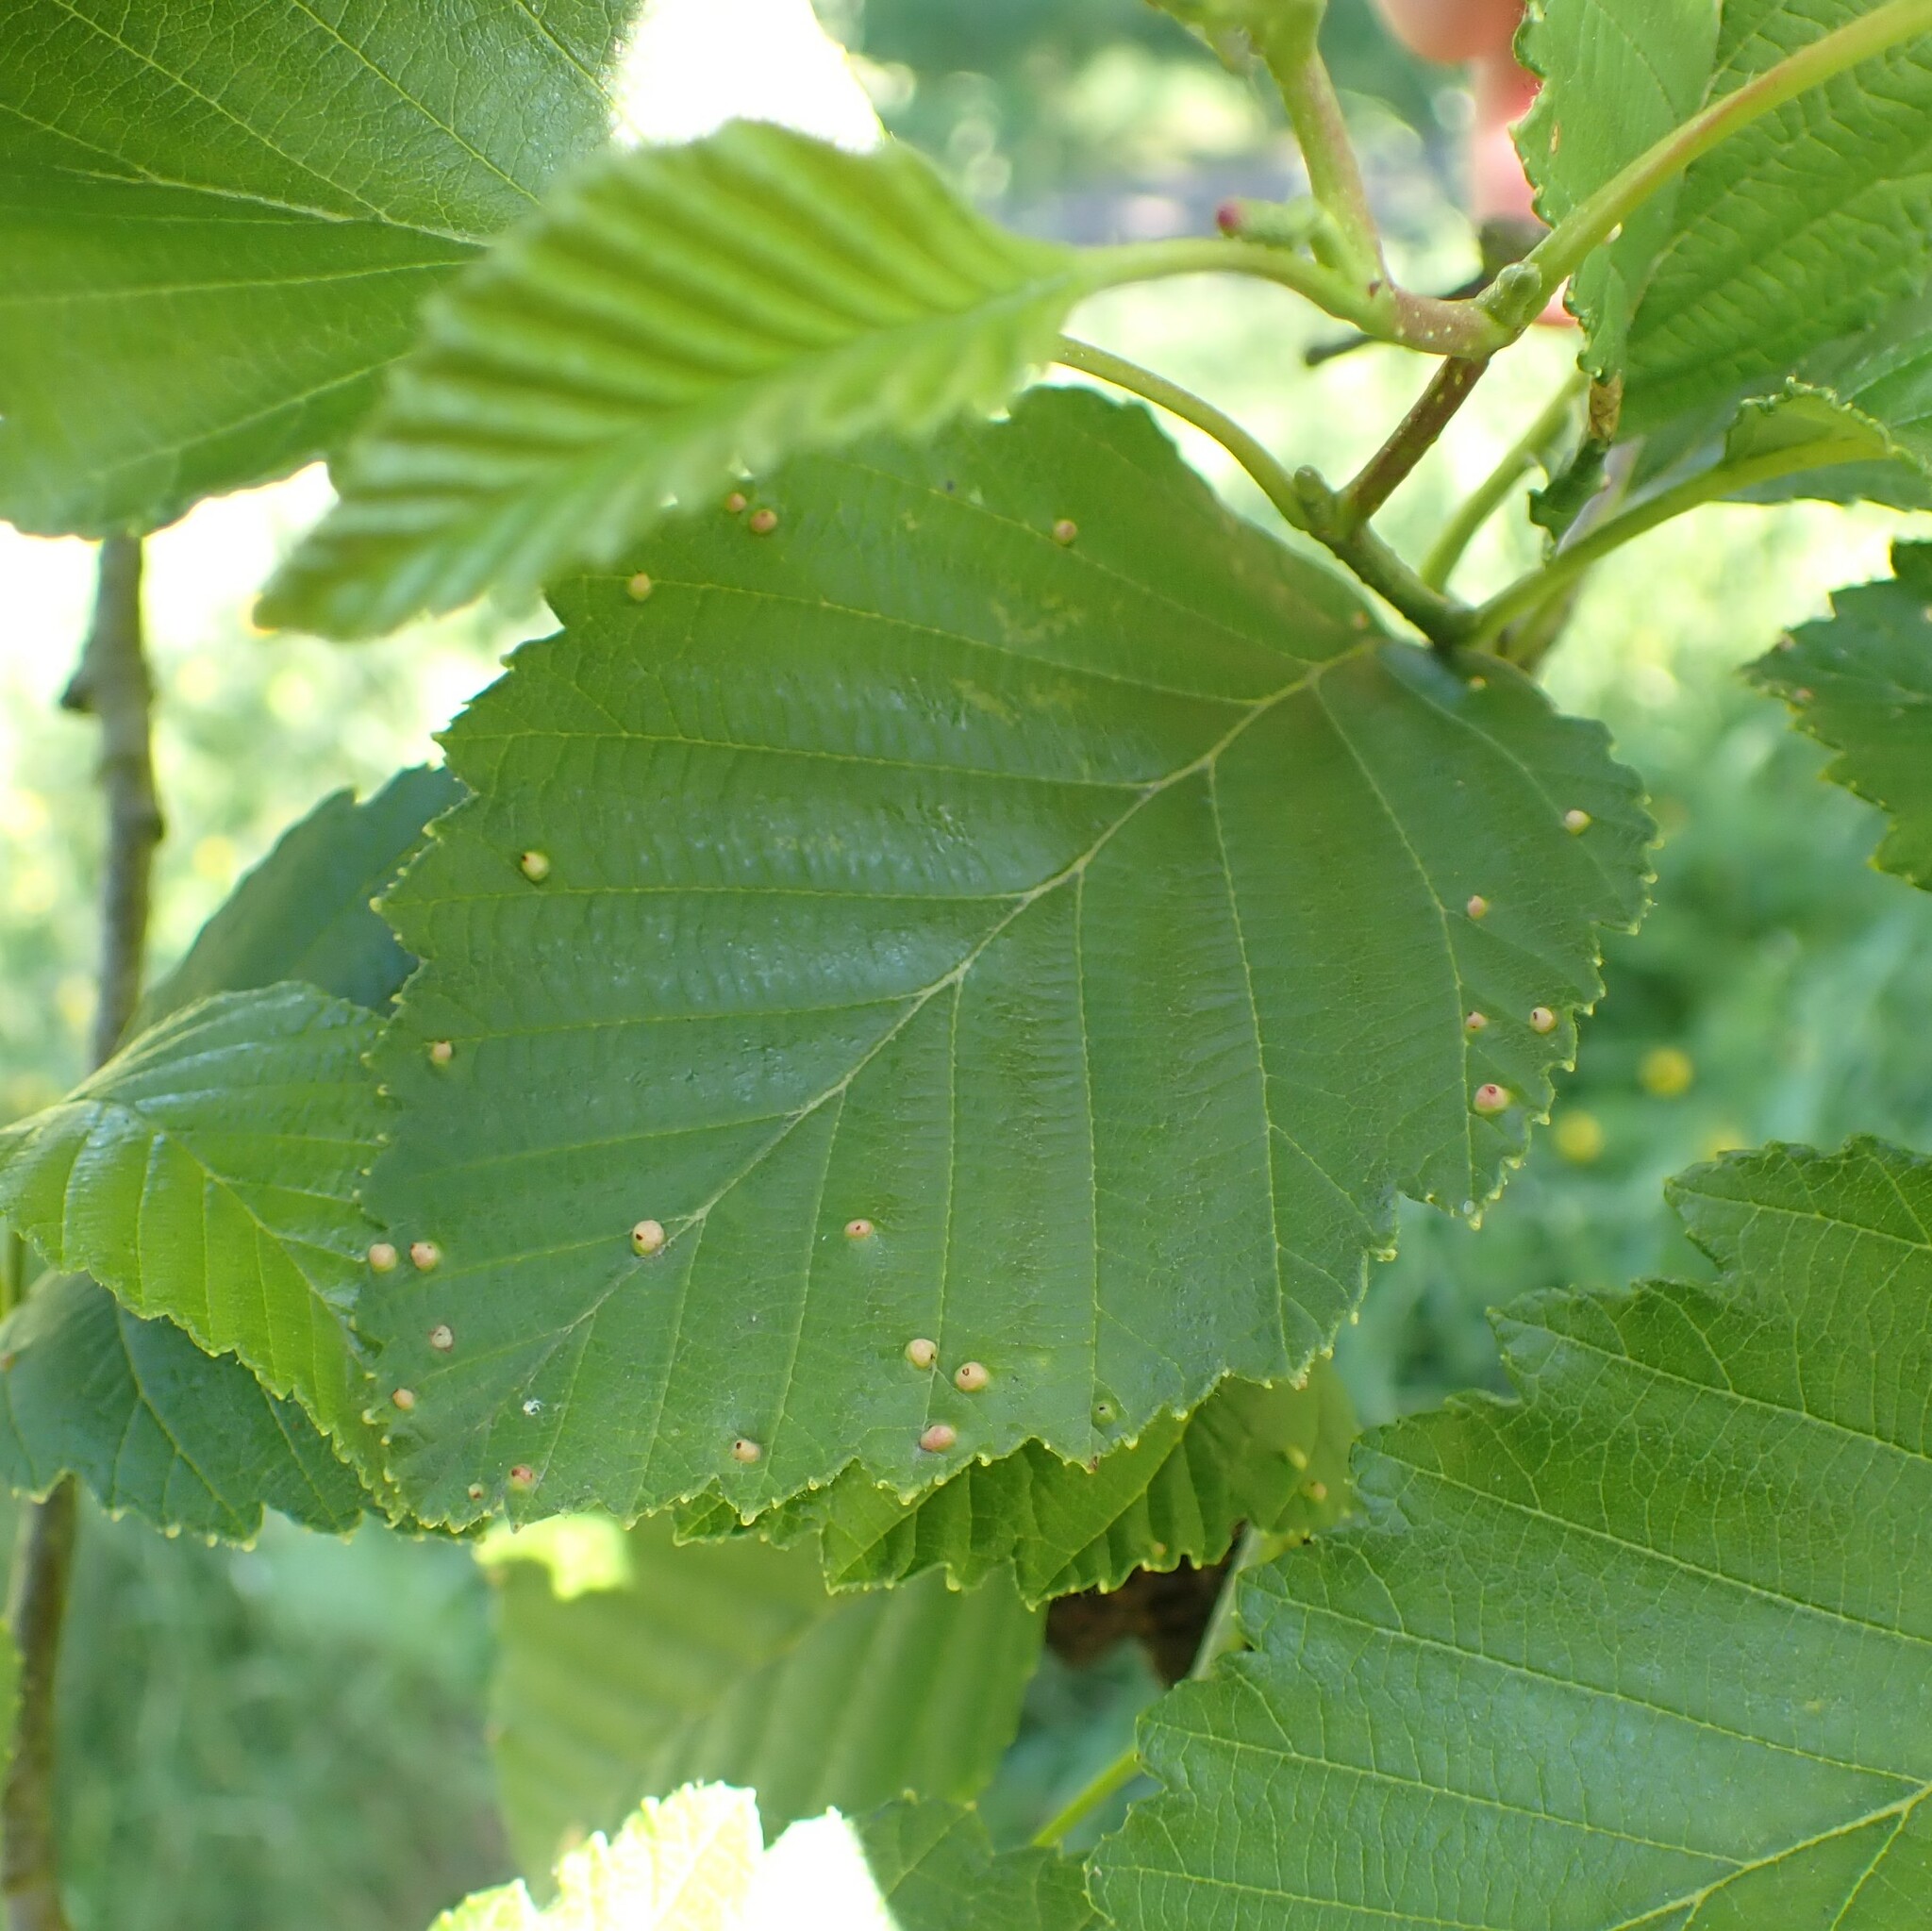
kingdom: Animalia
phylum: Arthropoda
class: Arachnida
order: Trombidiformes
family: Eriophyidae
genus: Eriophyes
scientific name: Eriophyes laevis
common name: Alder leaf gall mite
